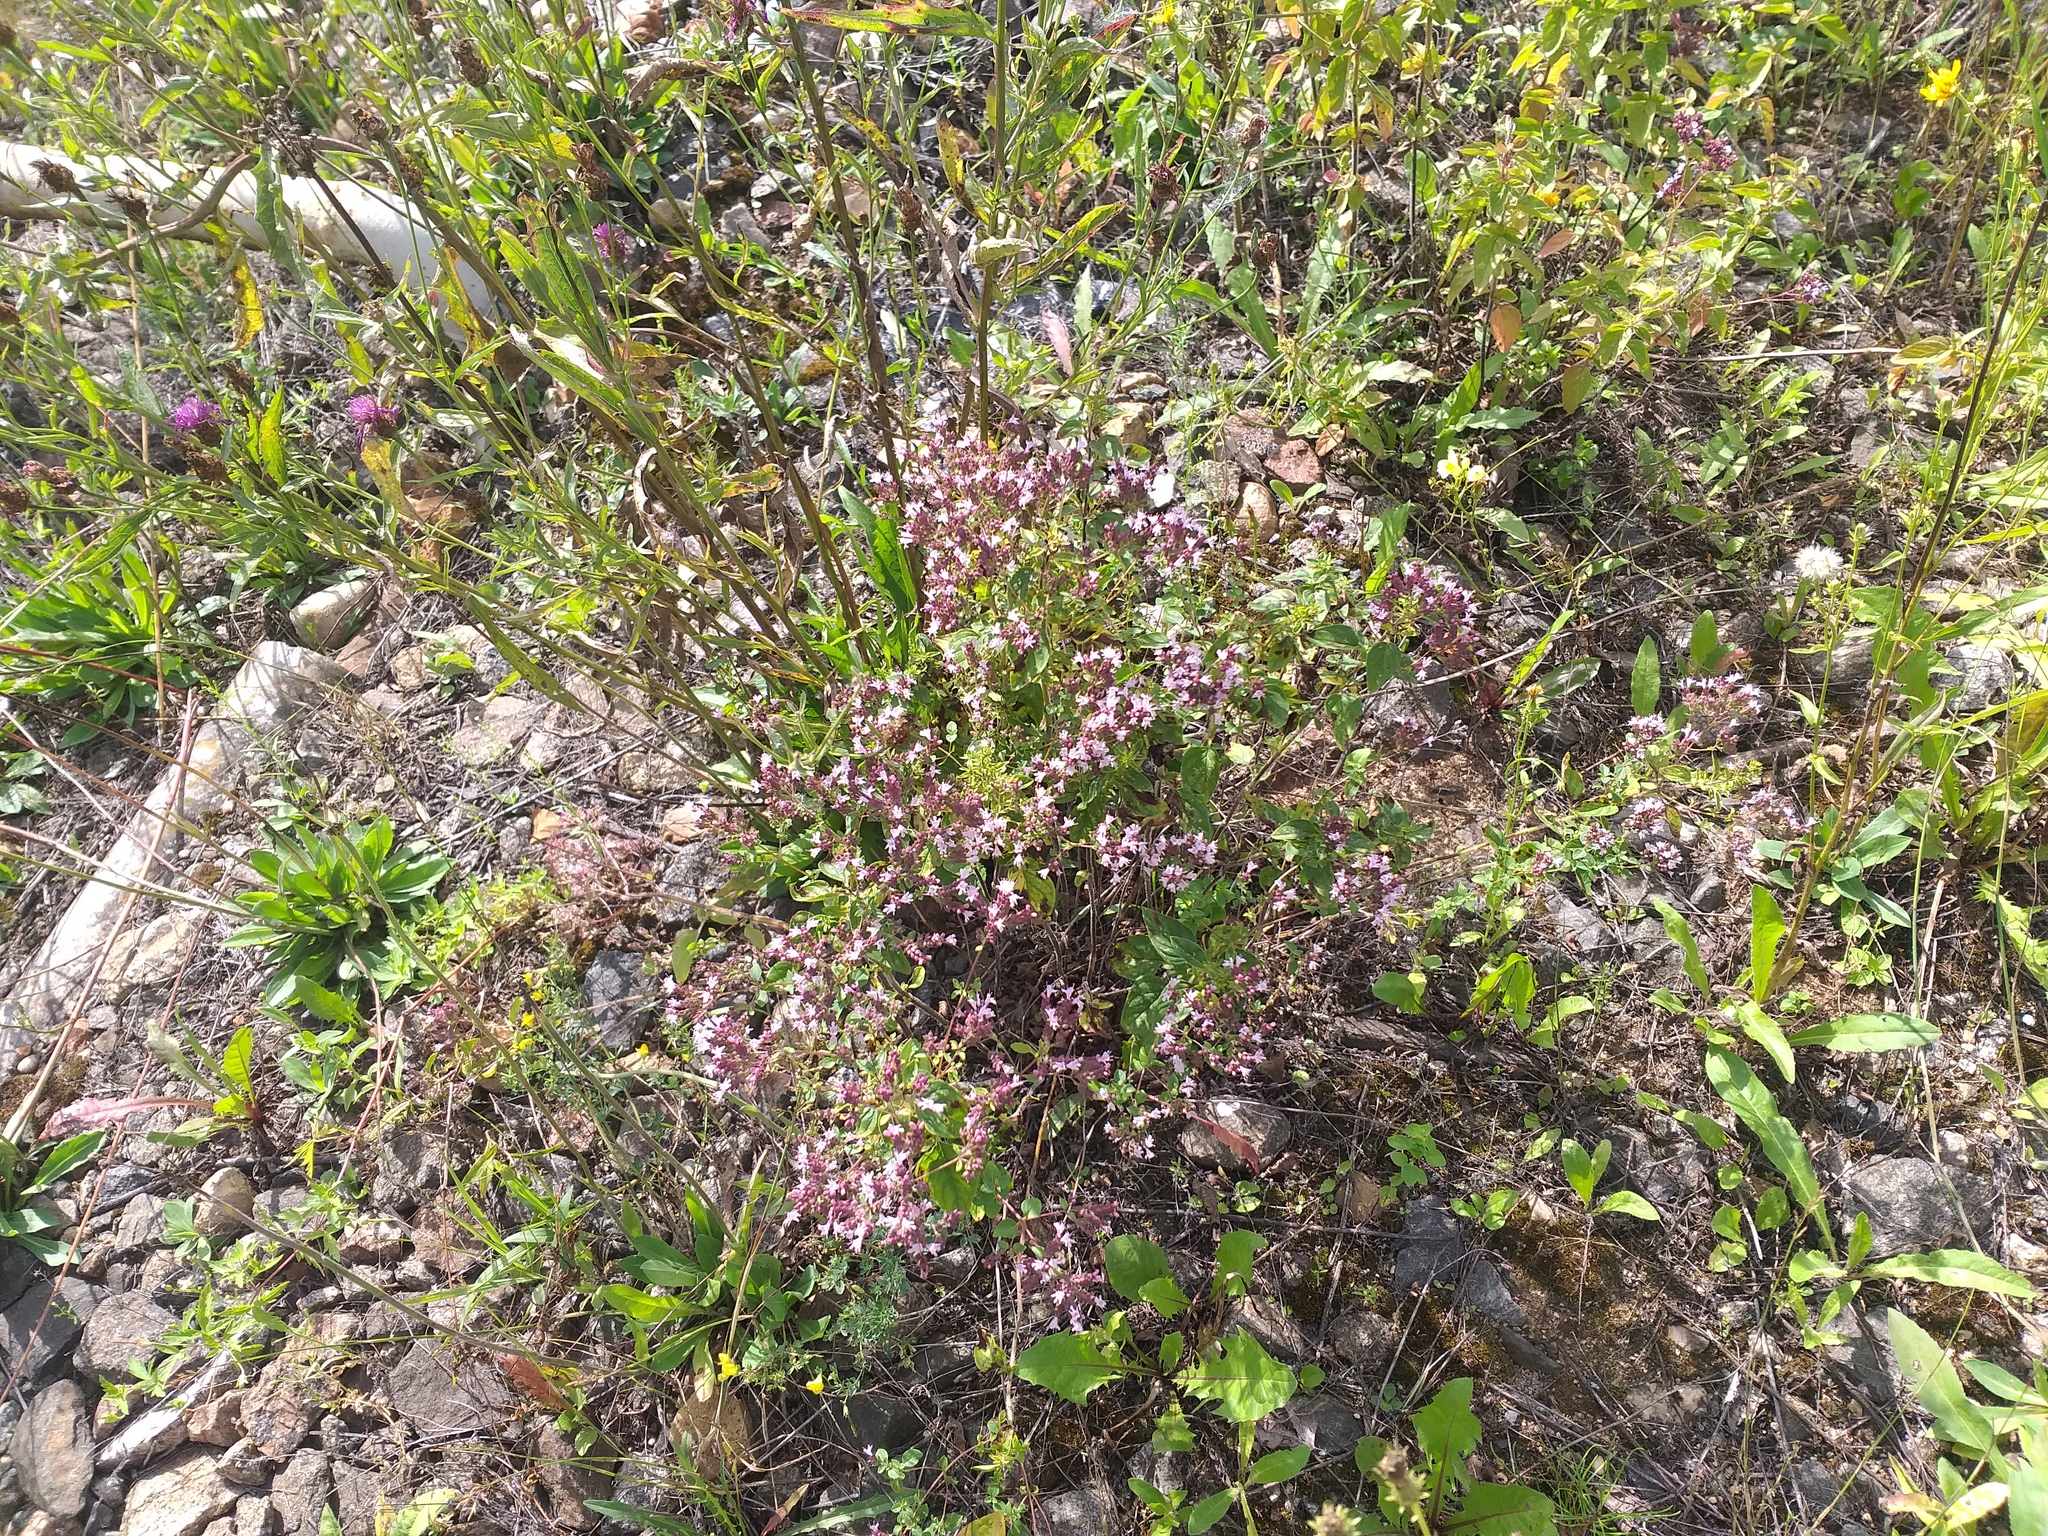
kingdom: Plantae
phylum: Tracheophyta
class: Magnoliopsida
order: Lamiales
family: Lamiaceae
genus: Origanum
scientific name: Origanum vulgare
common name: Wild marjoram
